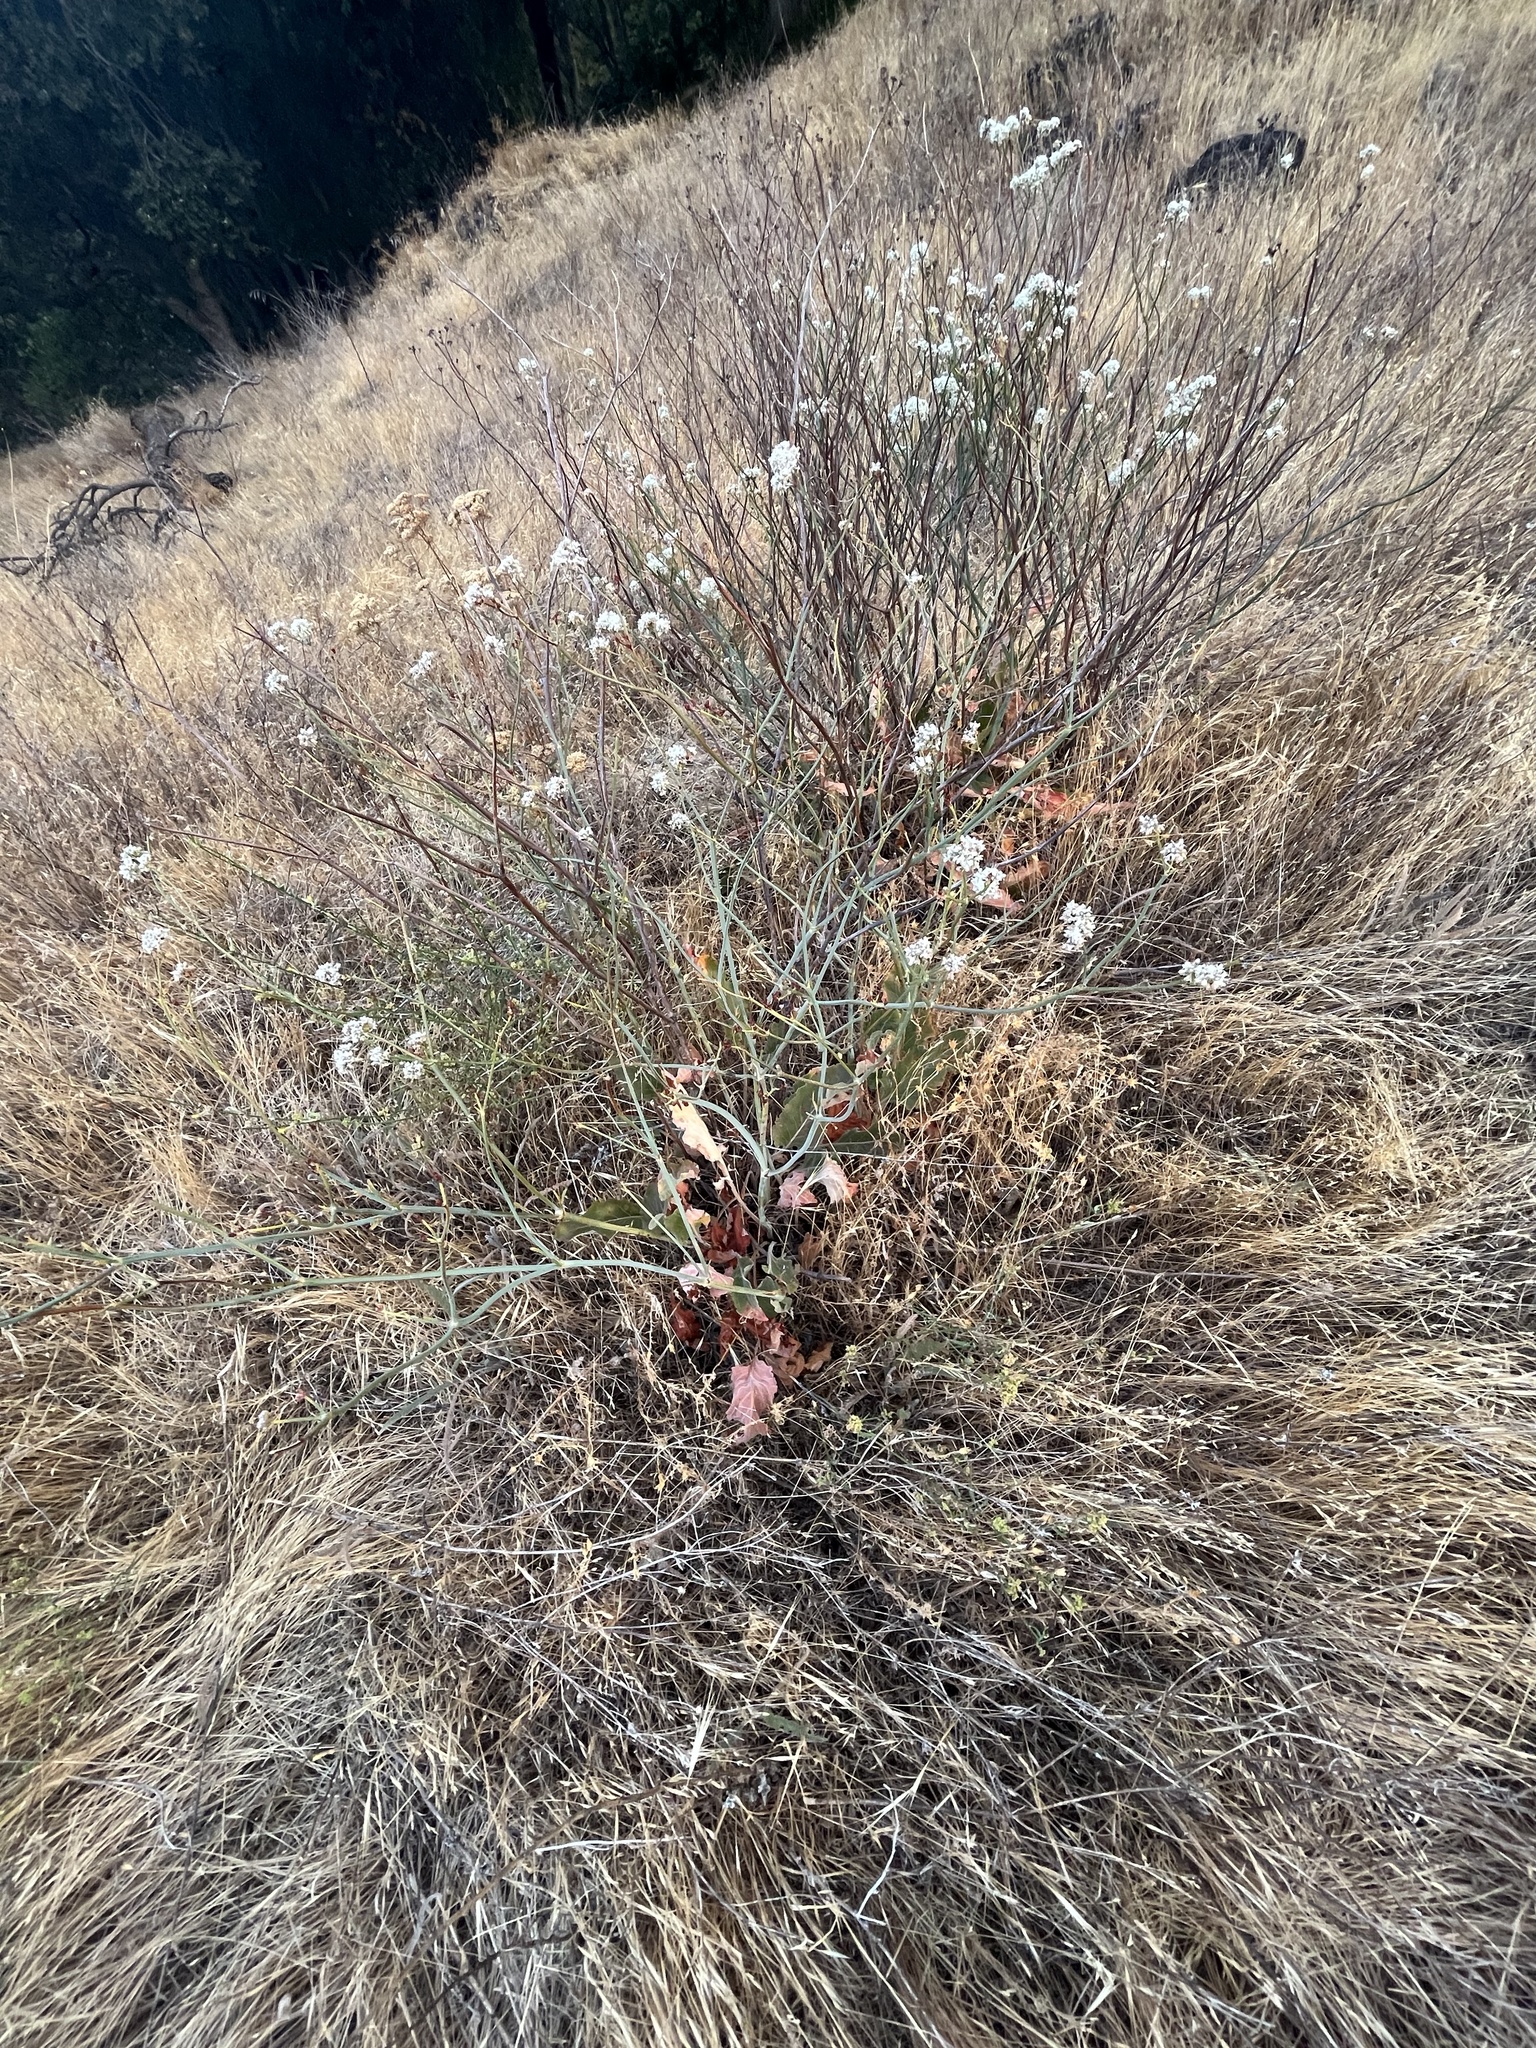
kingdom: Plantae
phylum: Tracheophyta
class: Magnoliopsida
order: Caryophyllales
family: Polygonaceae
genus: Eriogonum
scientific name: Eriogonum elatum
